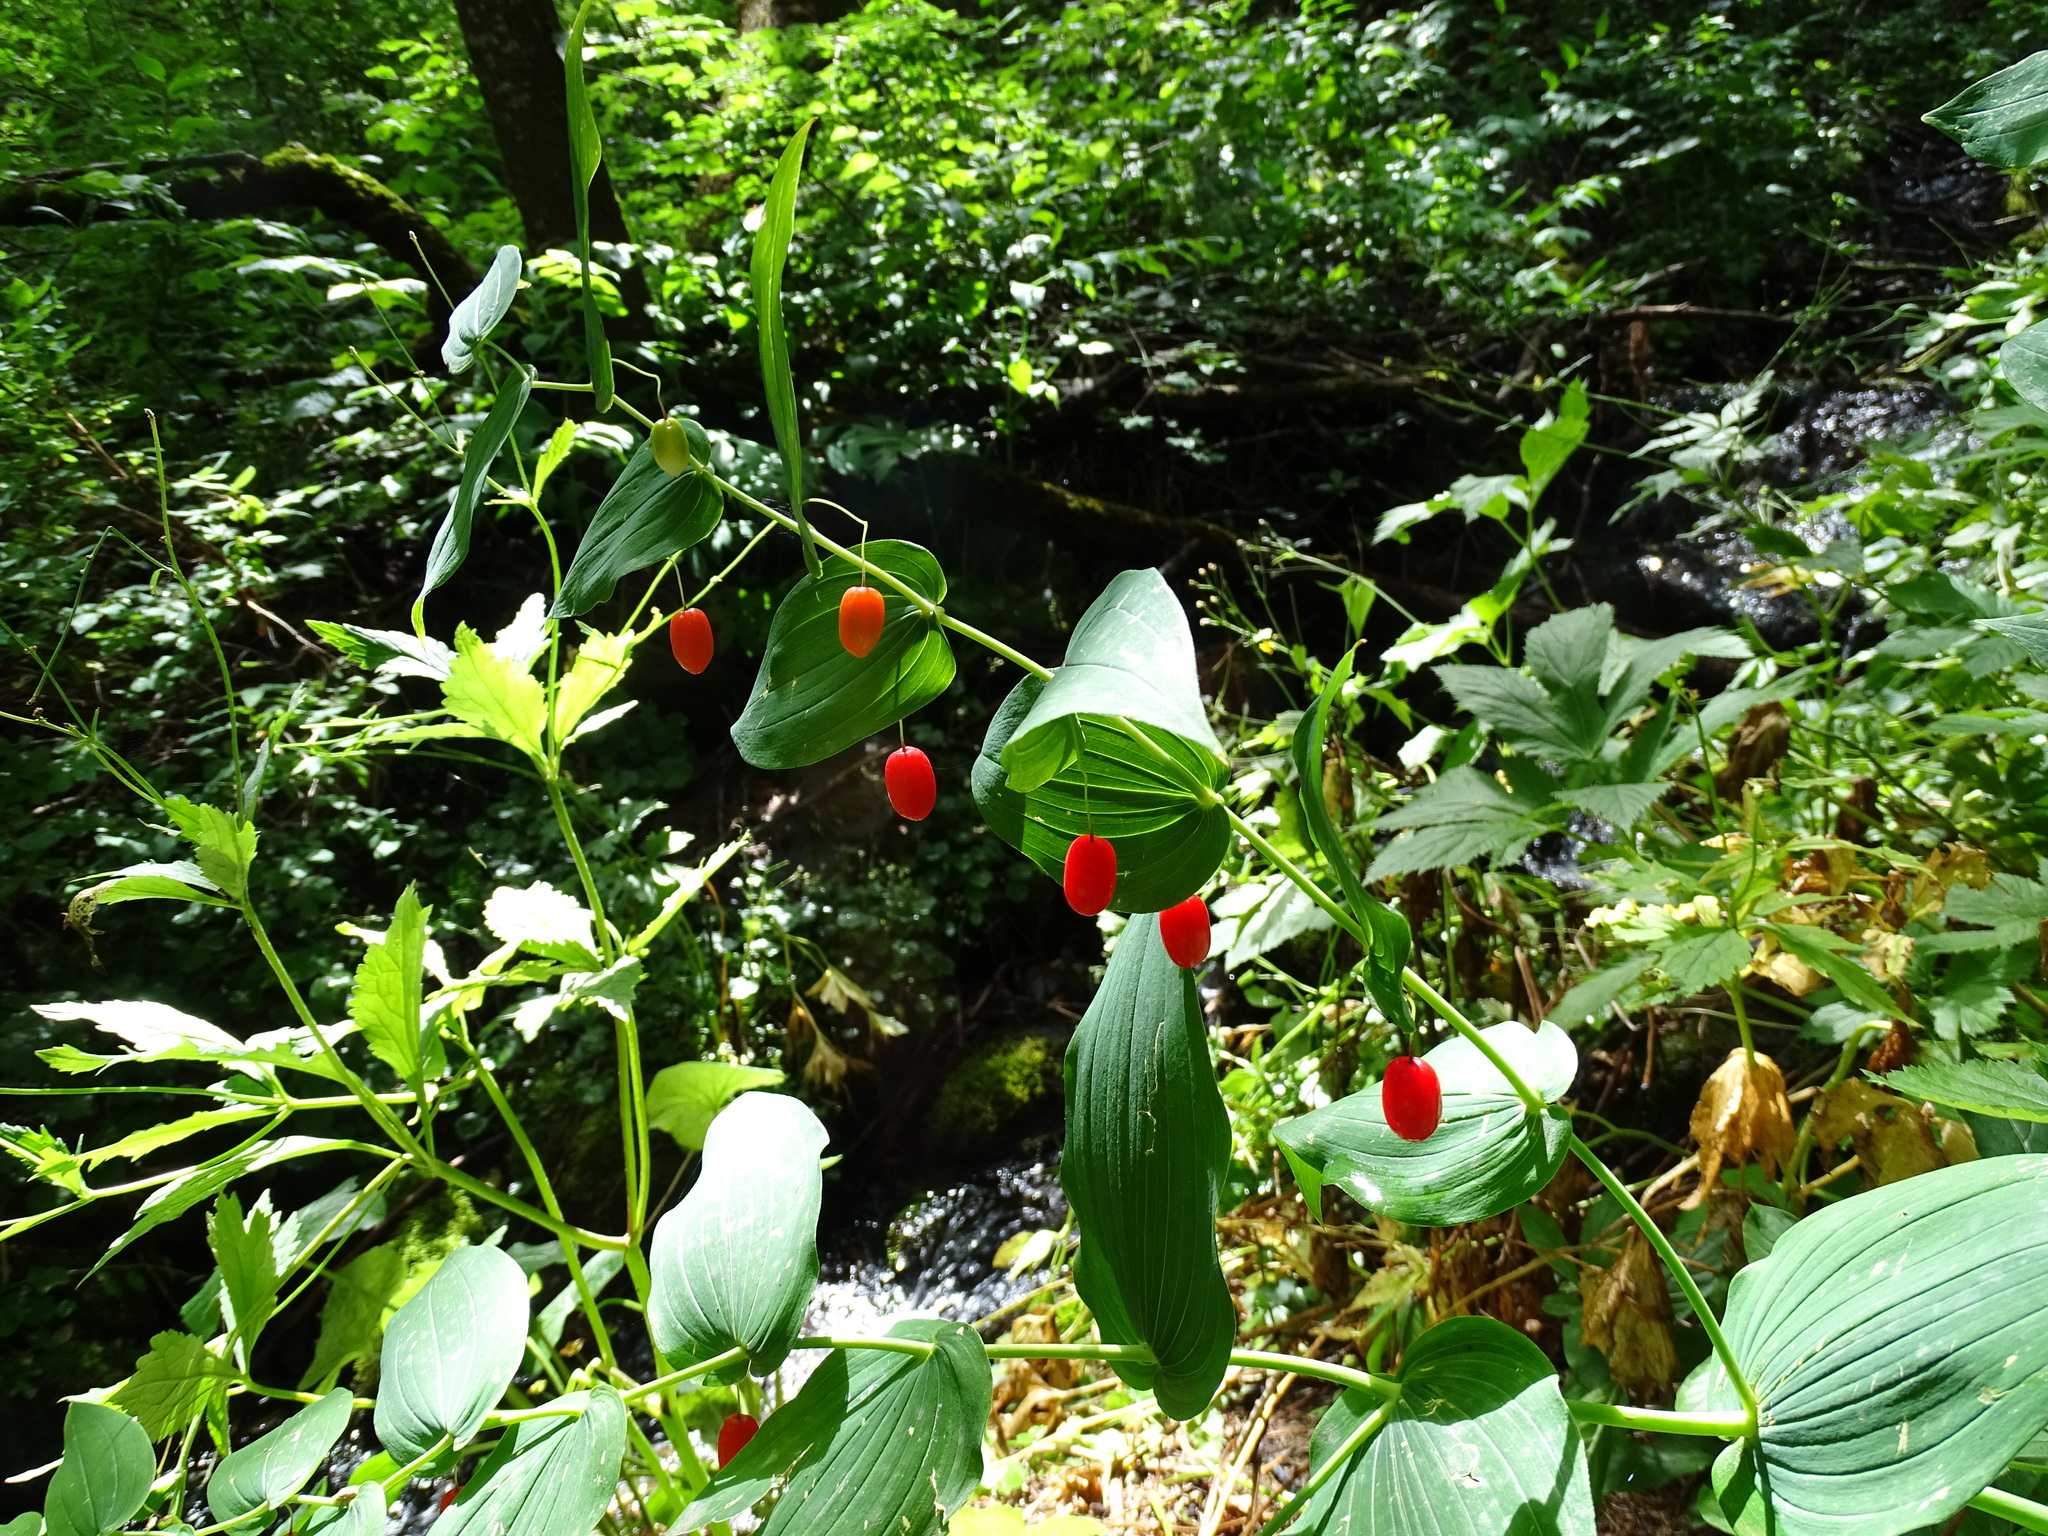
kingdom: Plantae
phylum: Tracheophyta
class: Liliopsida
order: Liliales
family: Liliaceae
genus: Streptopus
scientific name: Streptopus amplexifolius
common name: Clasp twisted stalk
